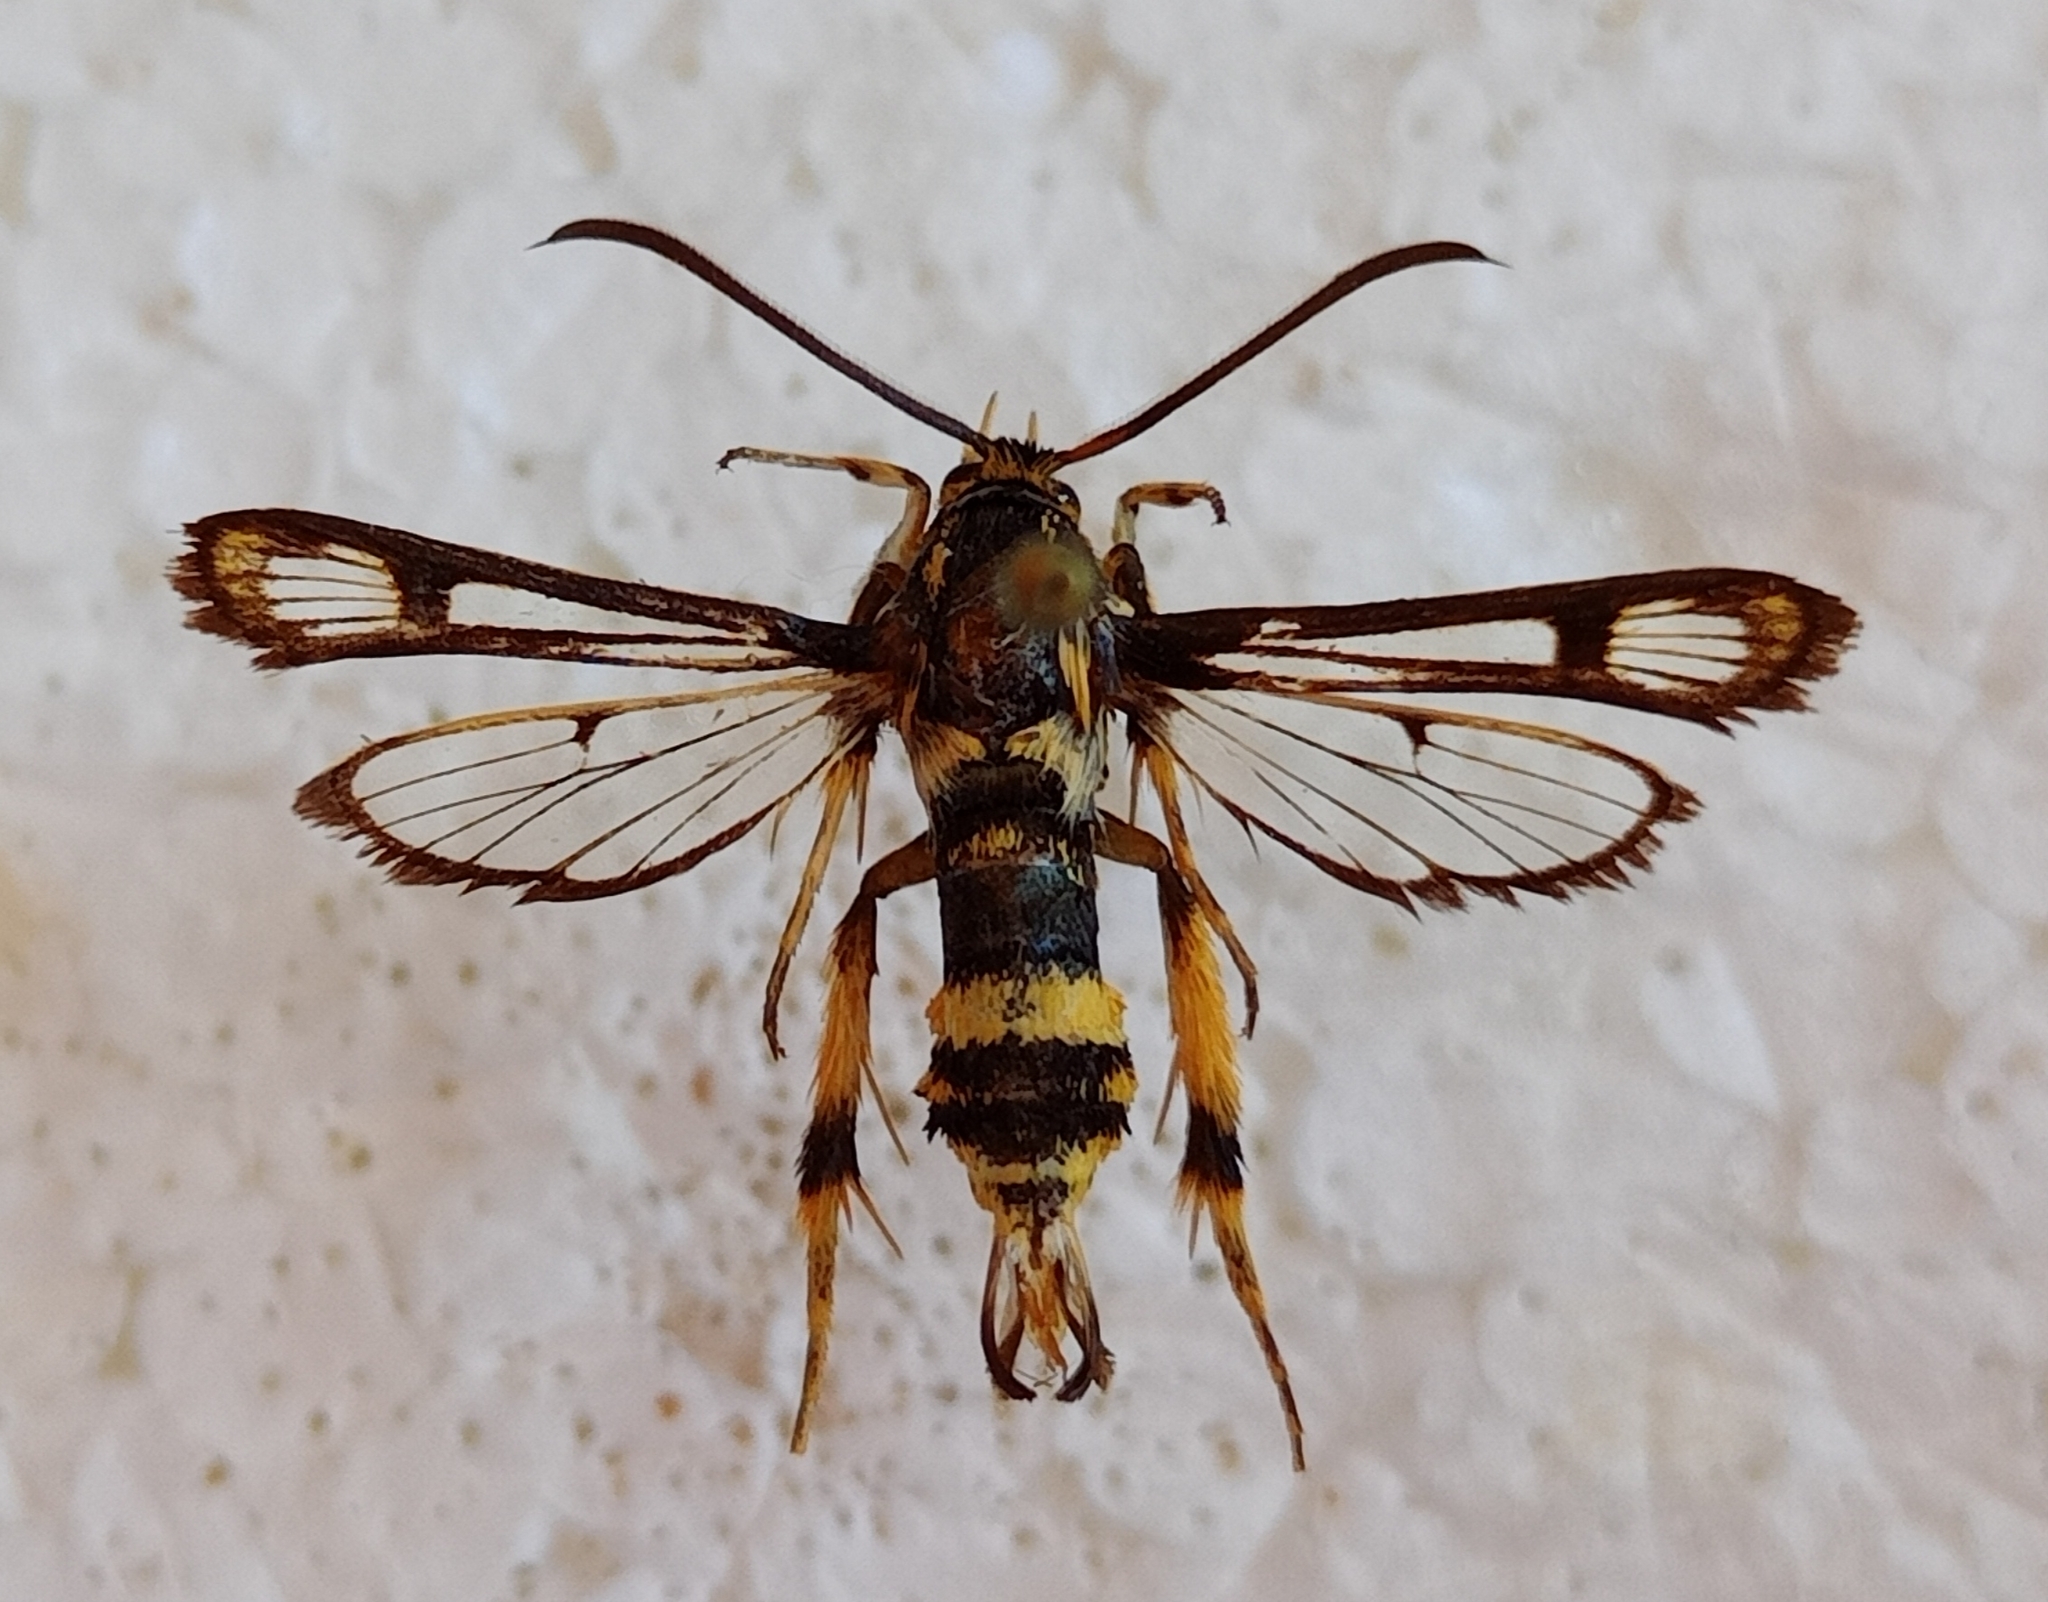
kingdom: Animalia
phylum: Arthropoda
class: Insecta
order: Lepidoptera
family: Sesiidae
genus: Chamaesphecia
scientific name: Chamaesphecia masariformis
